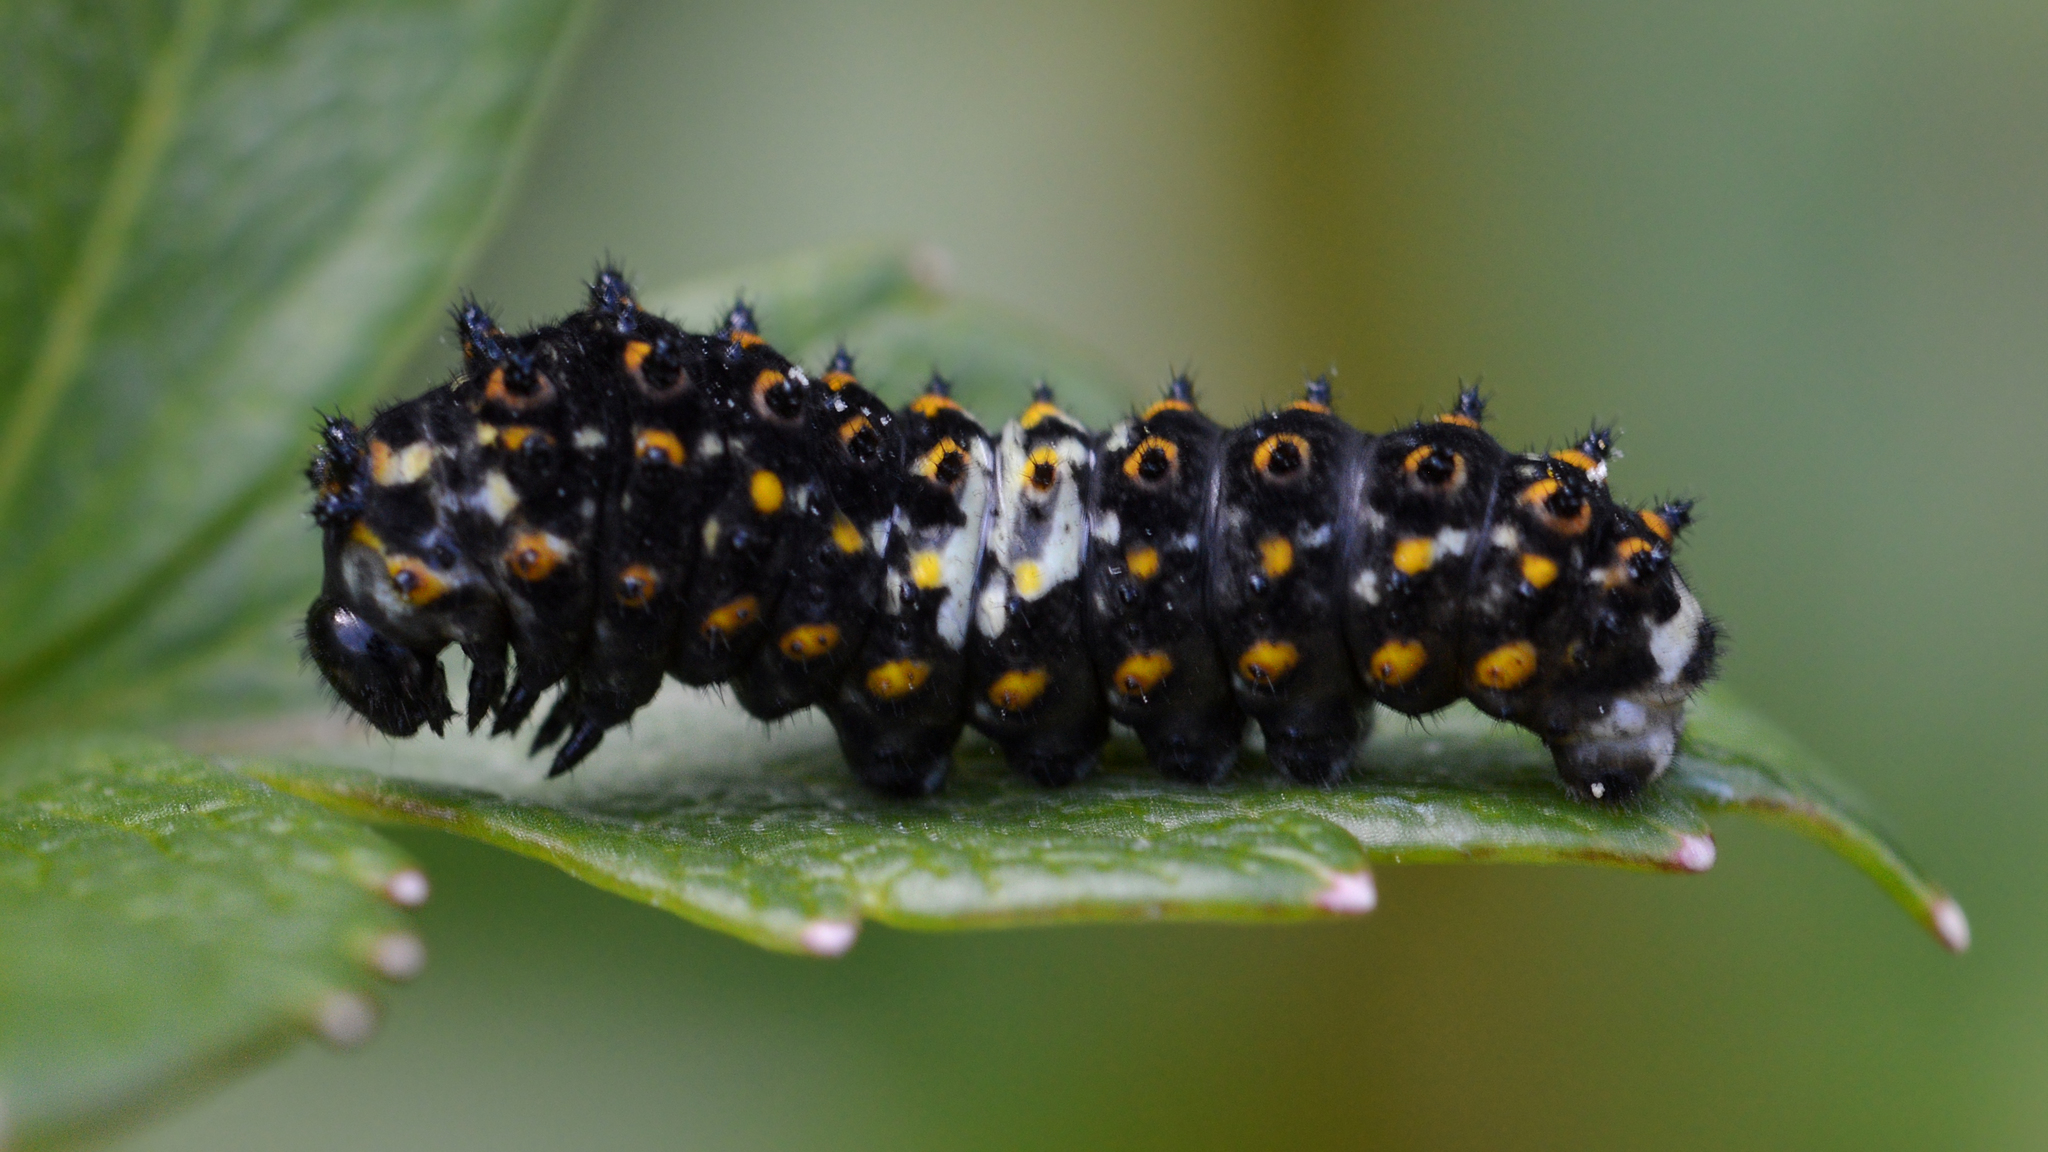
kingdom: Animalia
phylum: Arthropoda
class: Insecta
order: Lepidoptera
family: Papilionidae
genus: Papilio
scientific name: Papilio brevicauda
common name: Short tailed swallowtail
